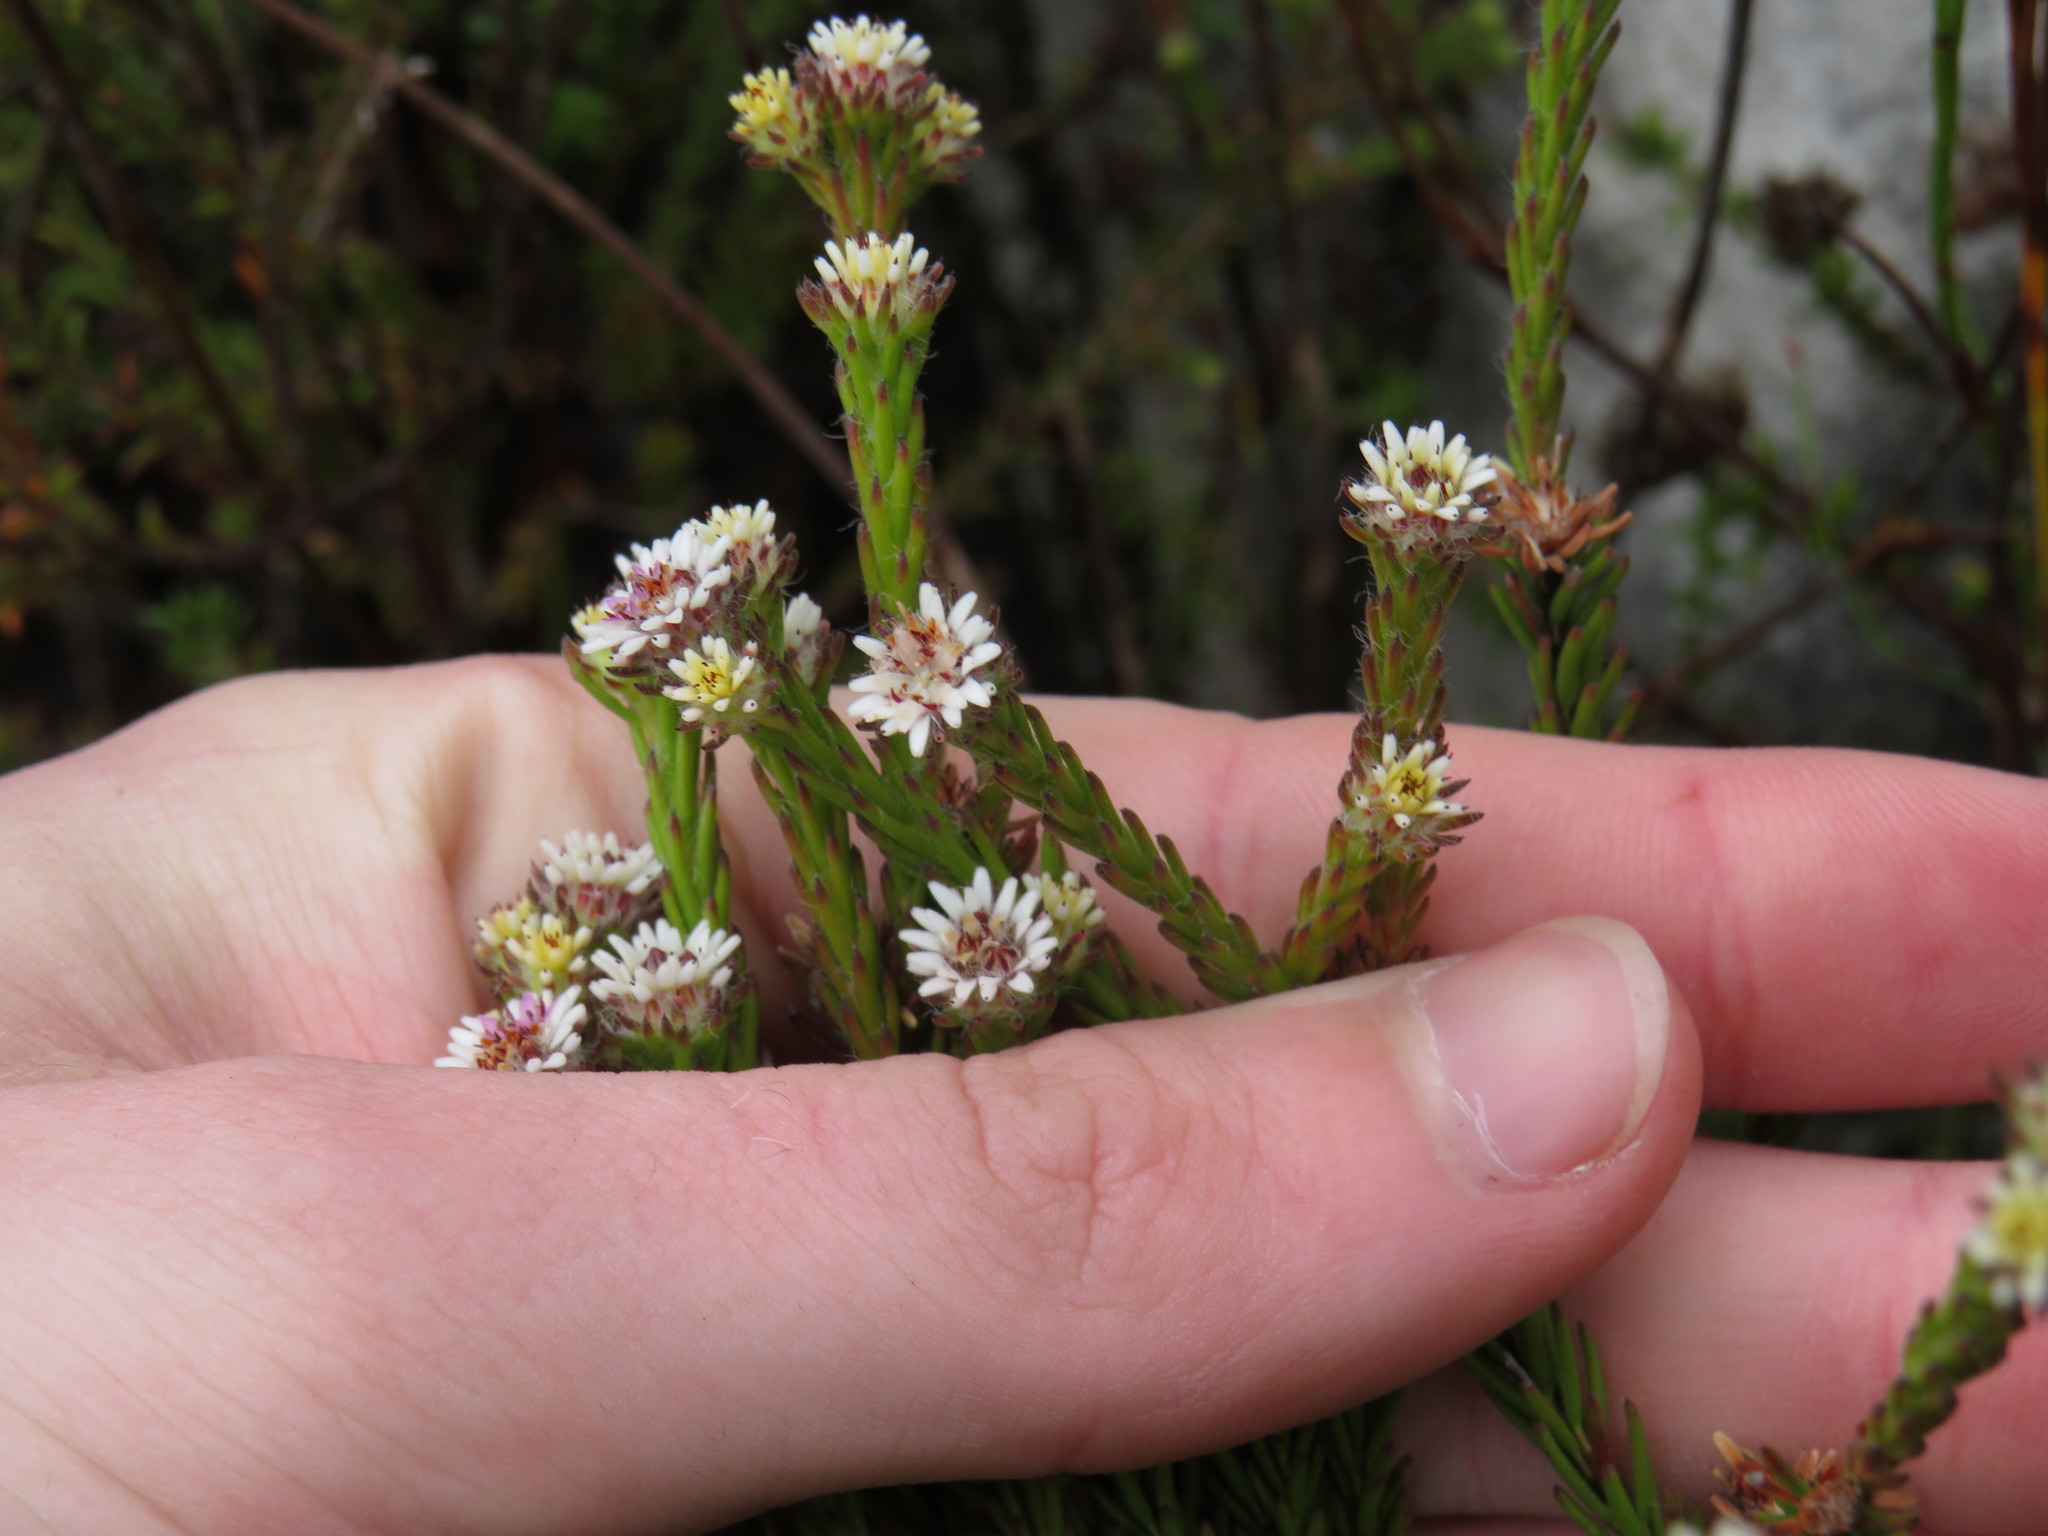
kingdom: Plantae
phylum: Tracheophyta
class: Magnoliopsida
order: Bruniales
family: Bruniaceae
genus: Staavia
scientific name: Staavia radiata
